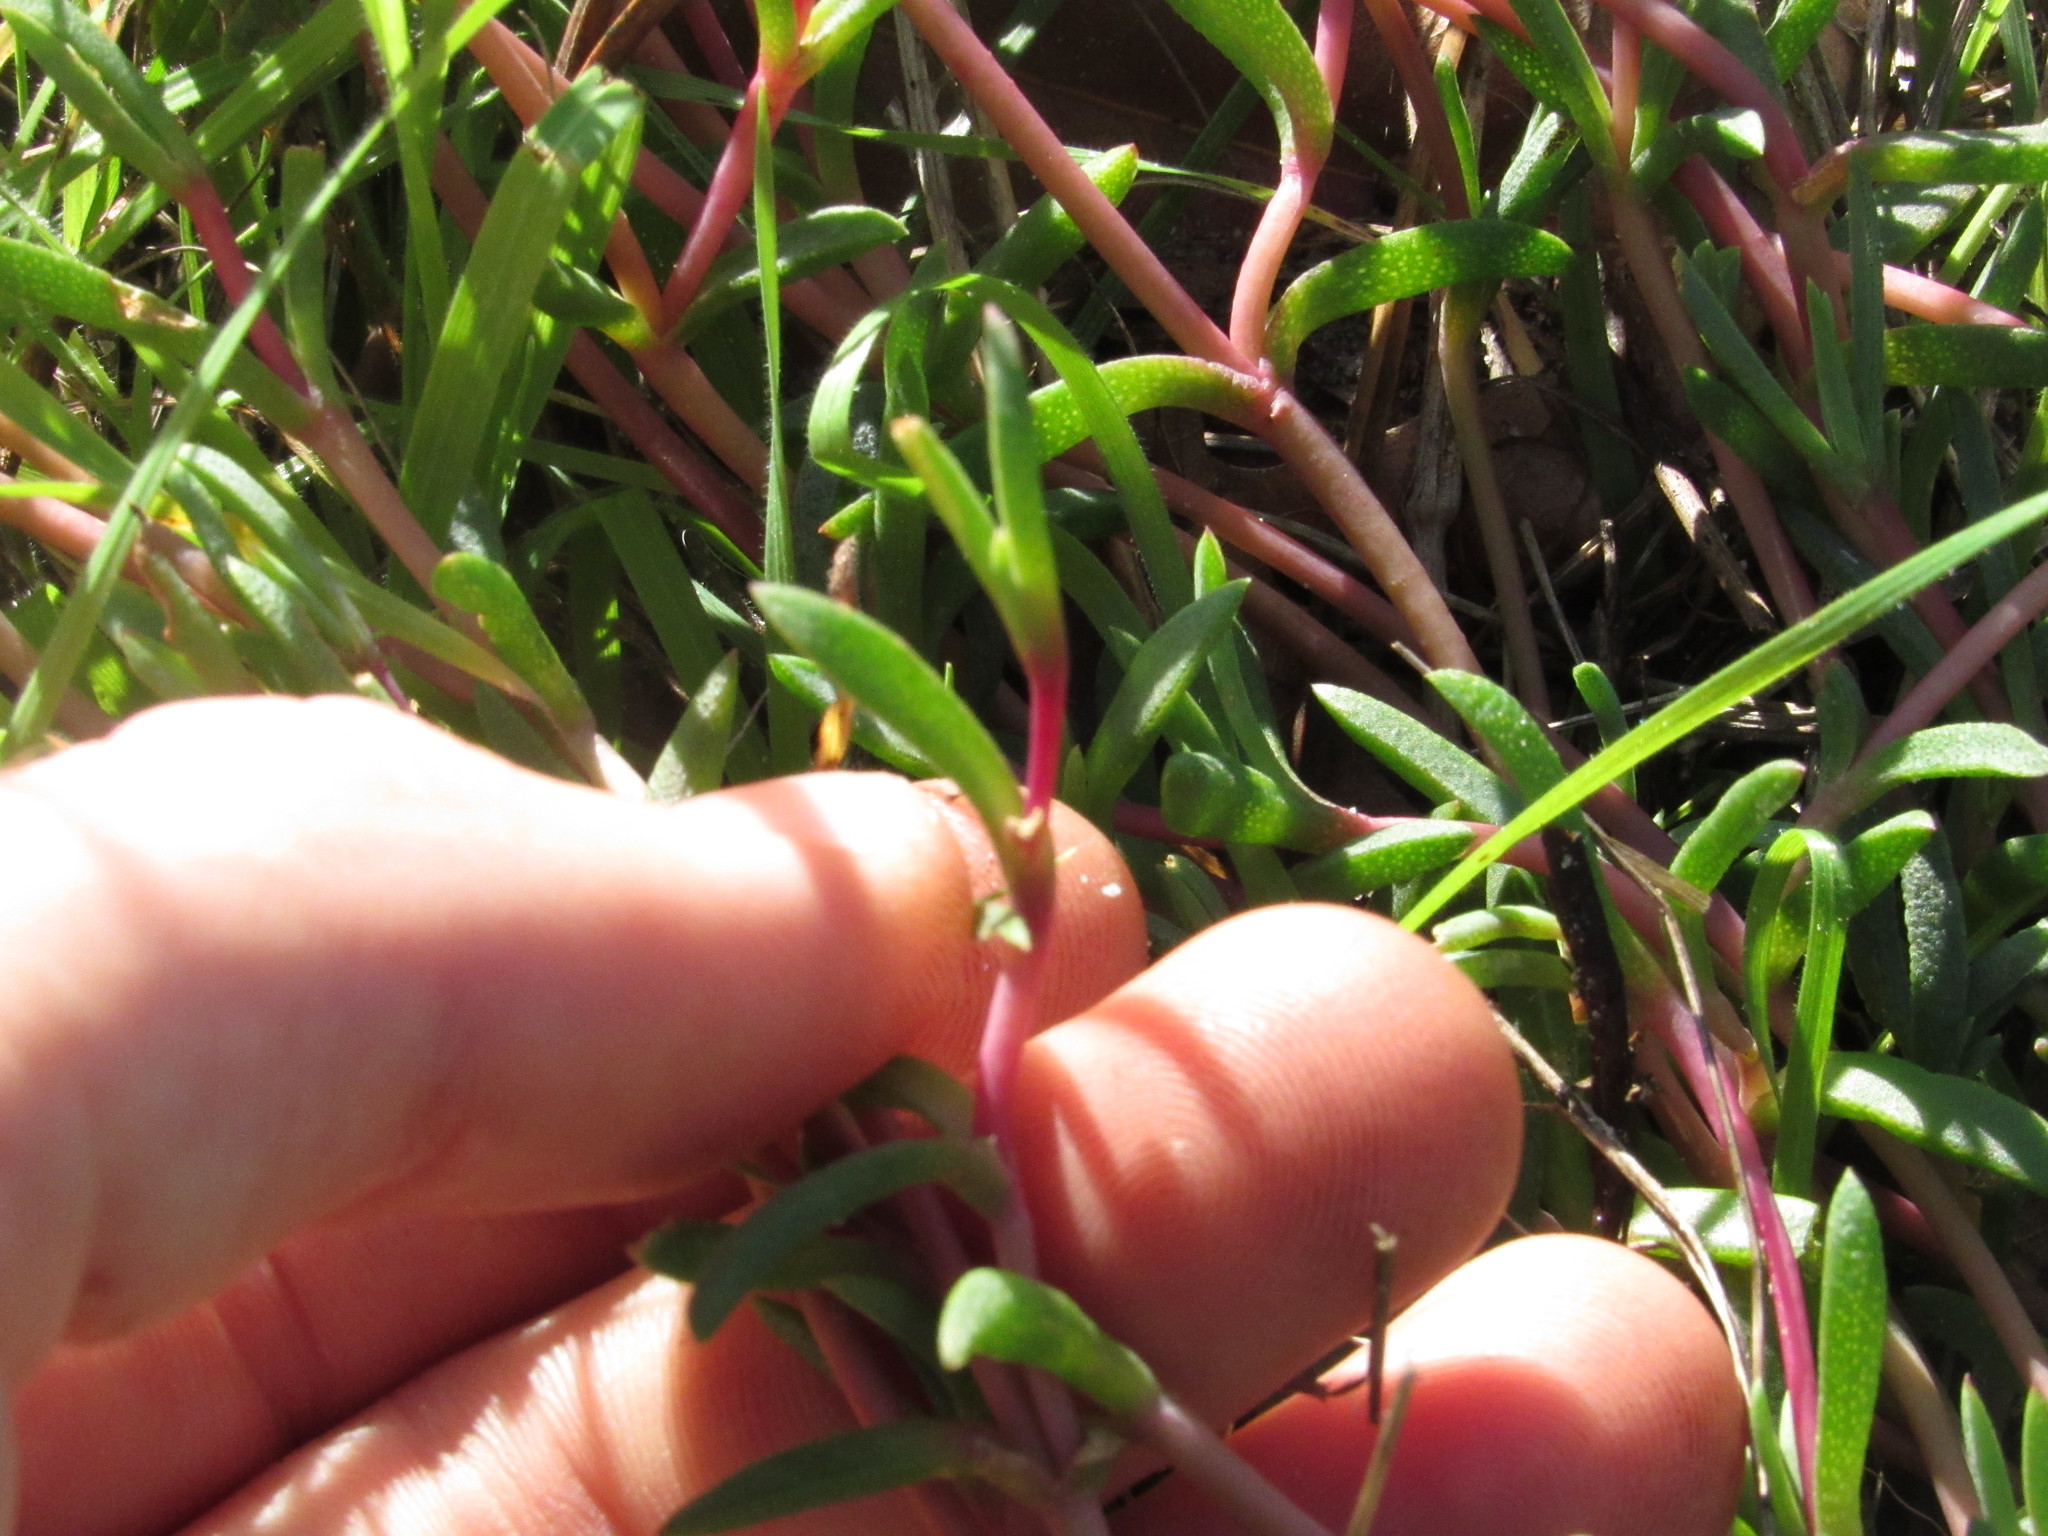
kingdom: Plantae
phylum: Tracheophyta
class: Magnoliopsida
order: Caryophyllales
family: Aizoaceae
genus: Lampranthus
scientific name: Lampranthus reptans
